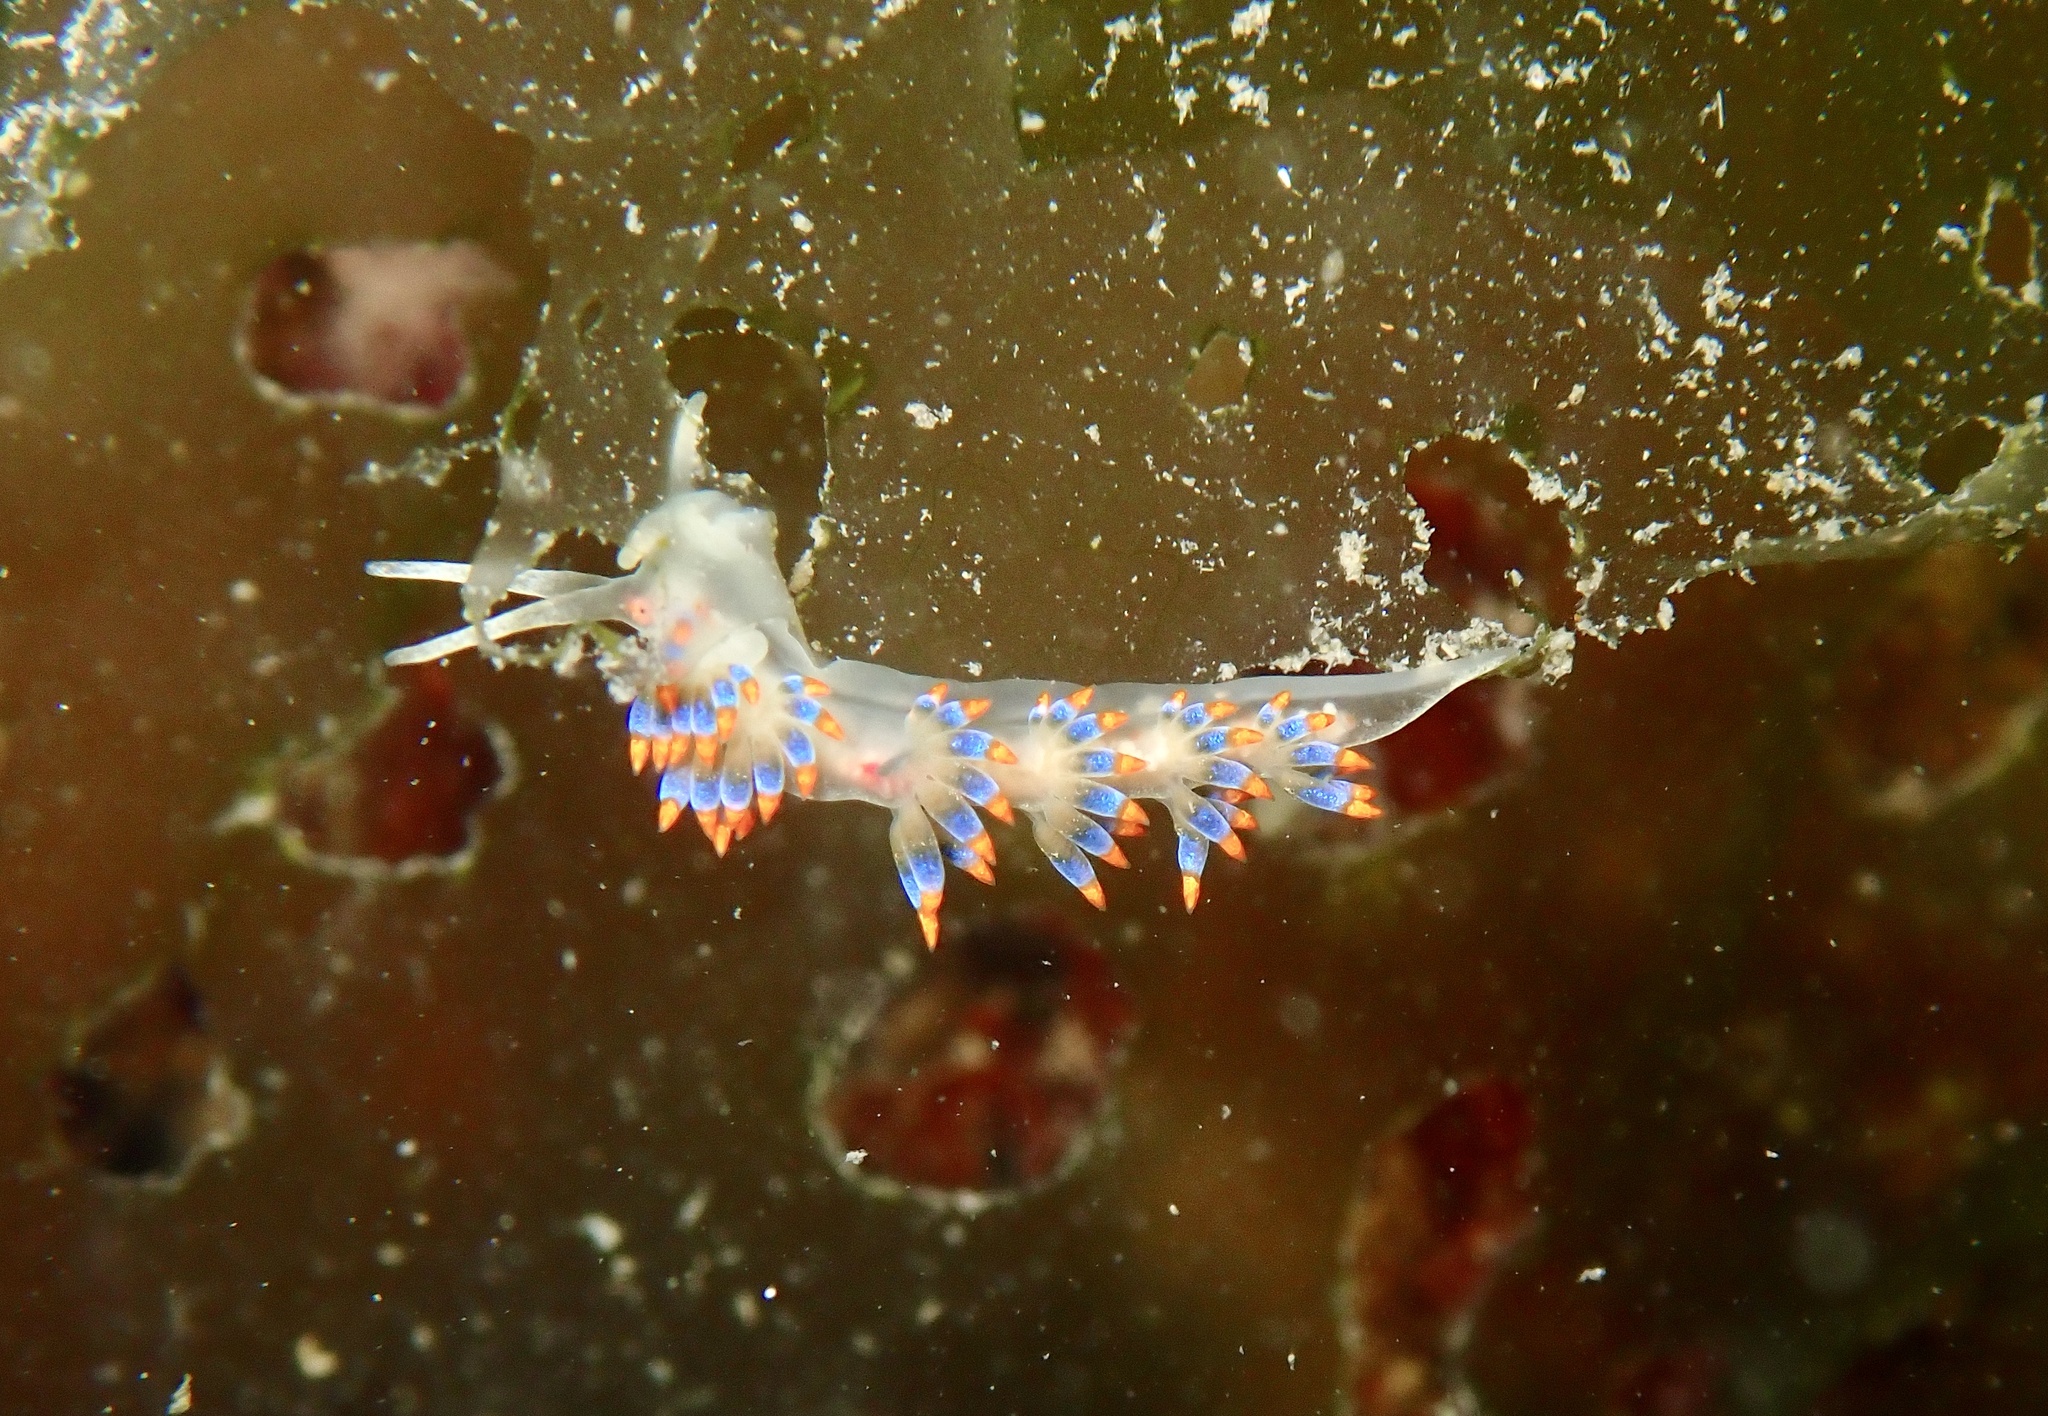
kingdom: Animalia
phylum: Mollusca
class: Gastropoda
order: Nudibranchia
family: Trinchesiidae
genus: Trinchesia
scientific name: Trinchesia caerulea
